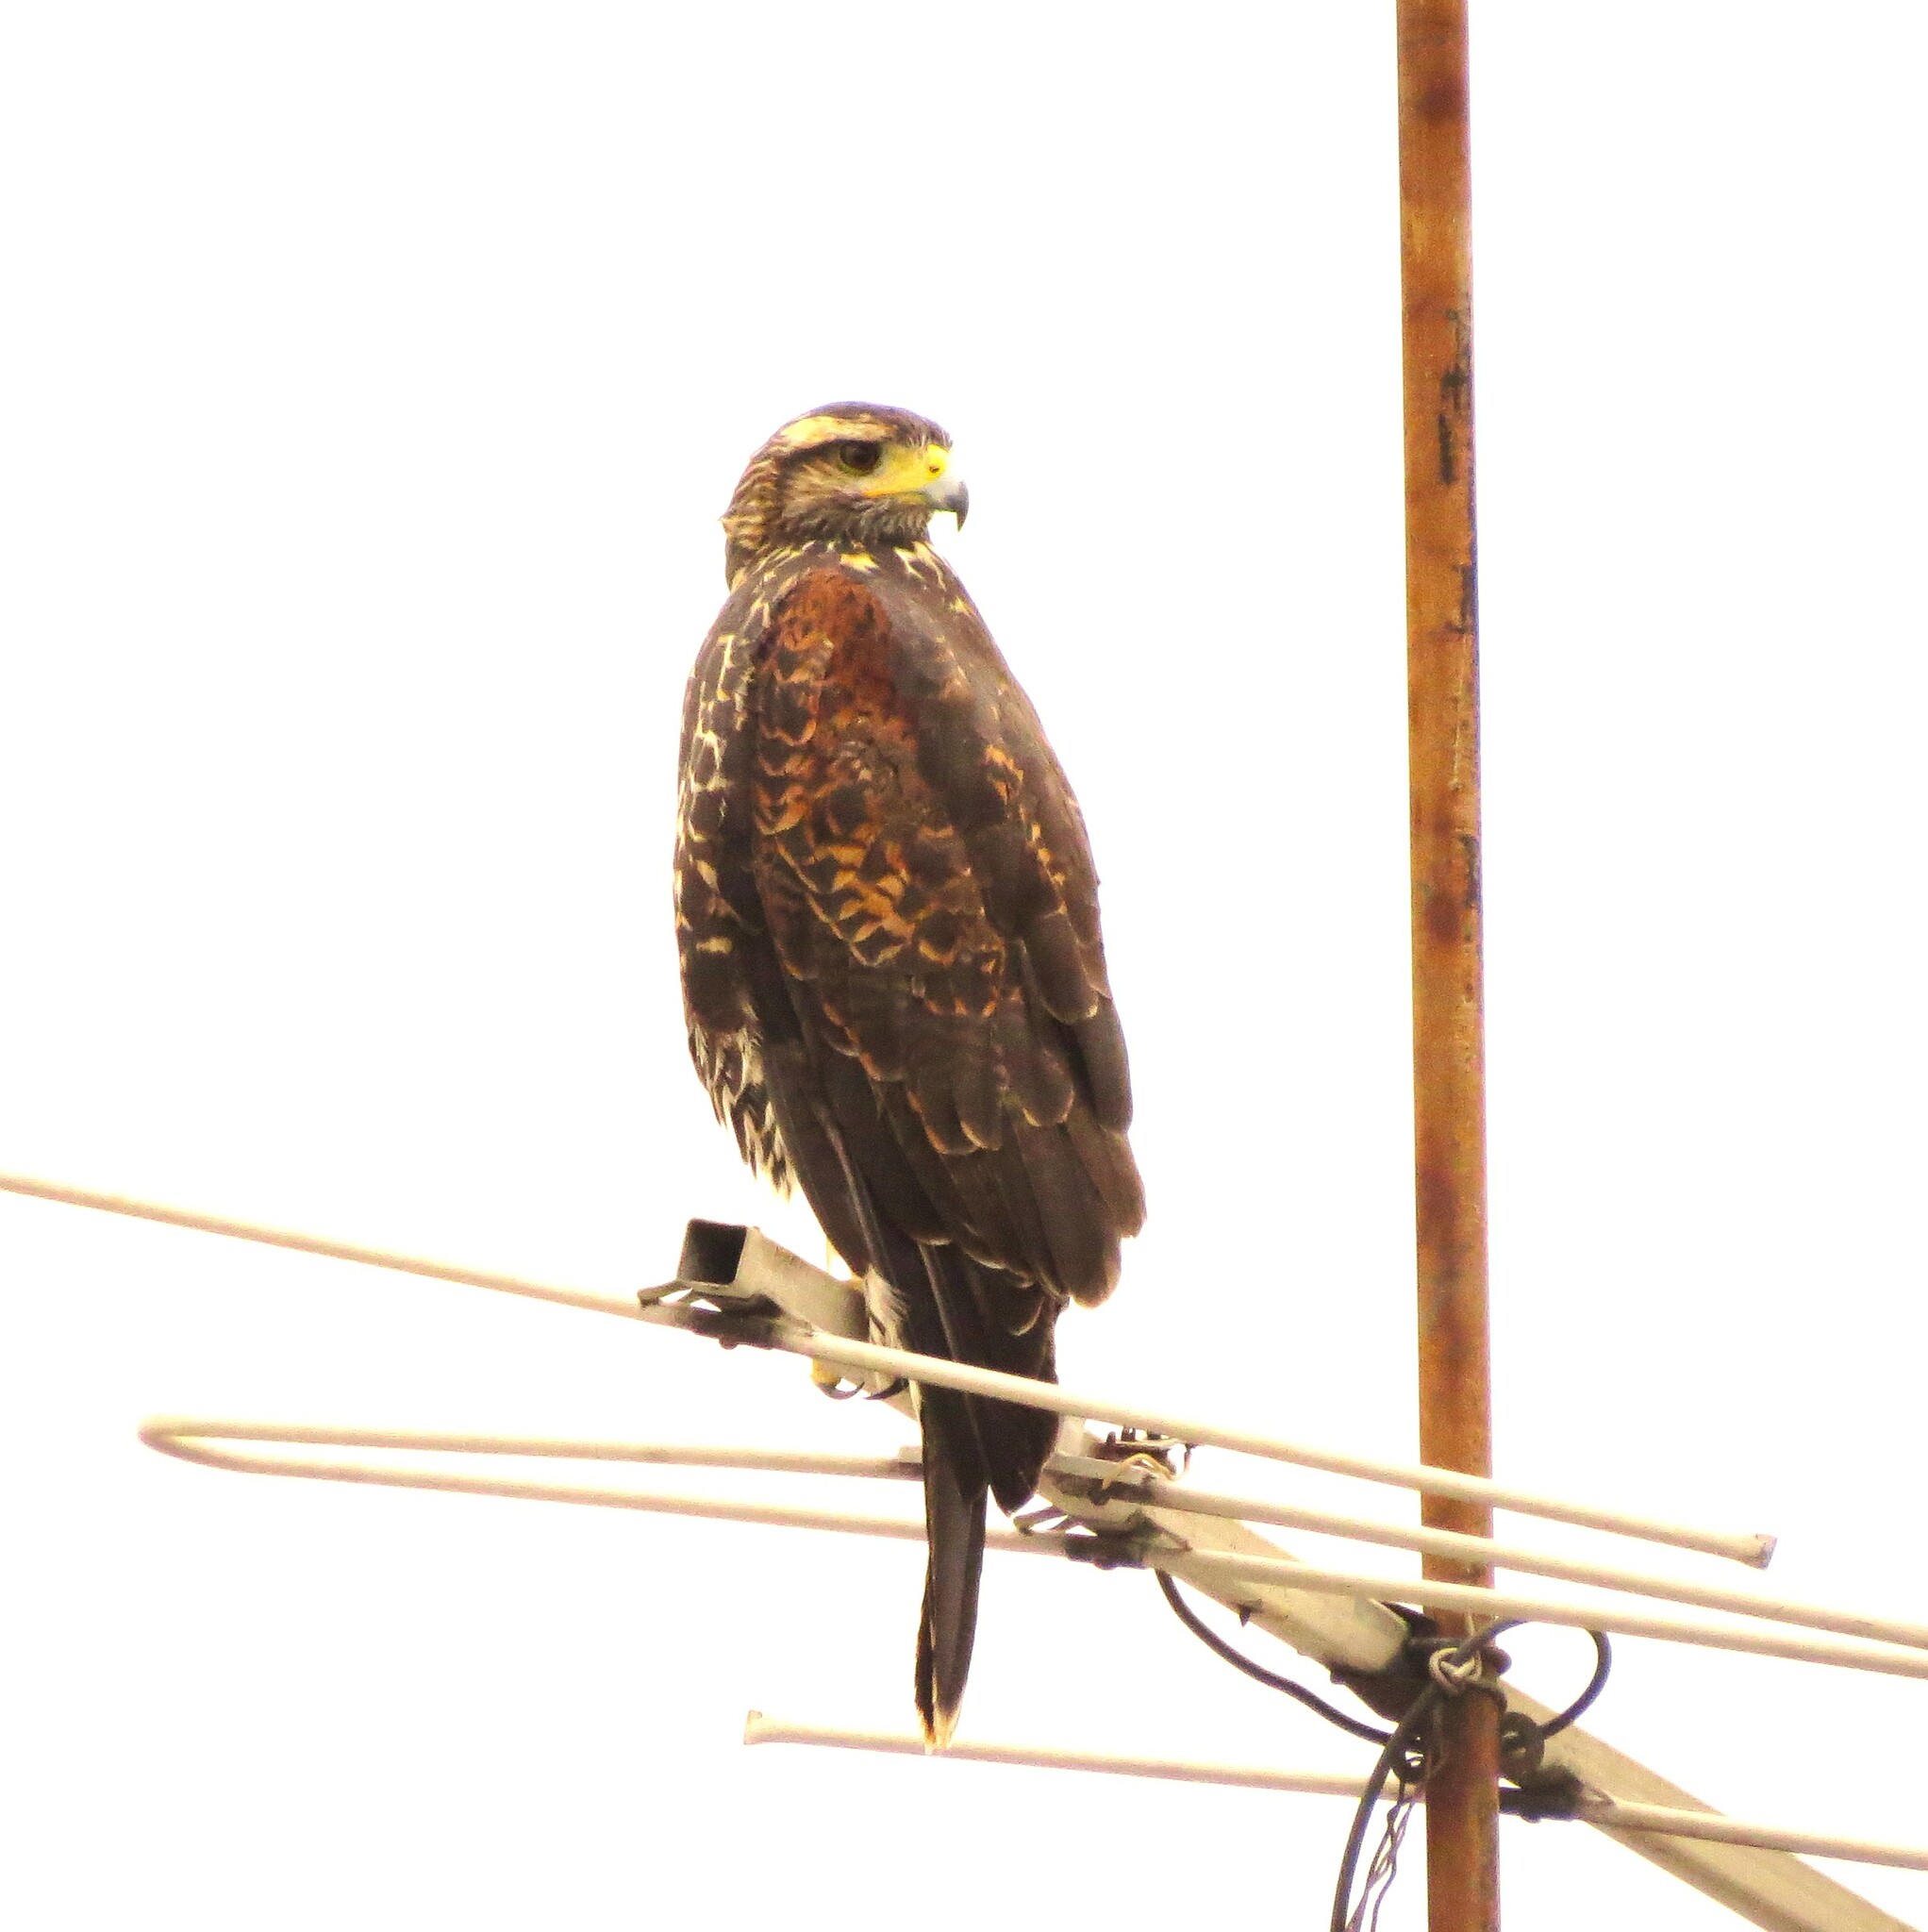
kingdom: Animalia
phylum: Chordata
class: Aves
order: Accipitriformes
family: Accipitridae
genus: Parabuteo
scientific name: Parabuteo unicinctus
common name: Harris's hawk
